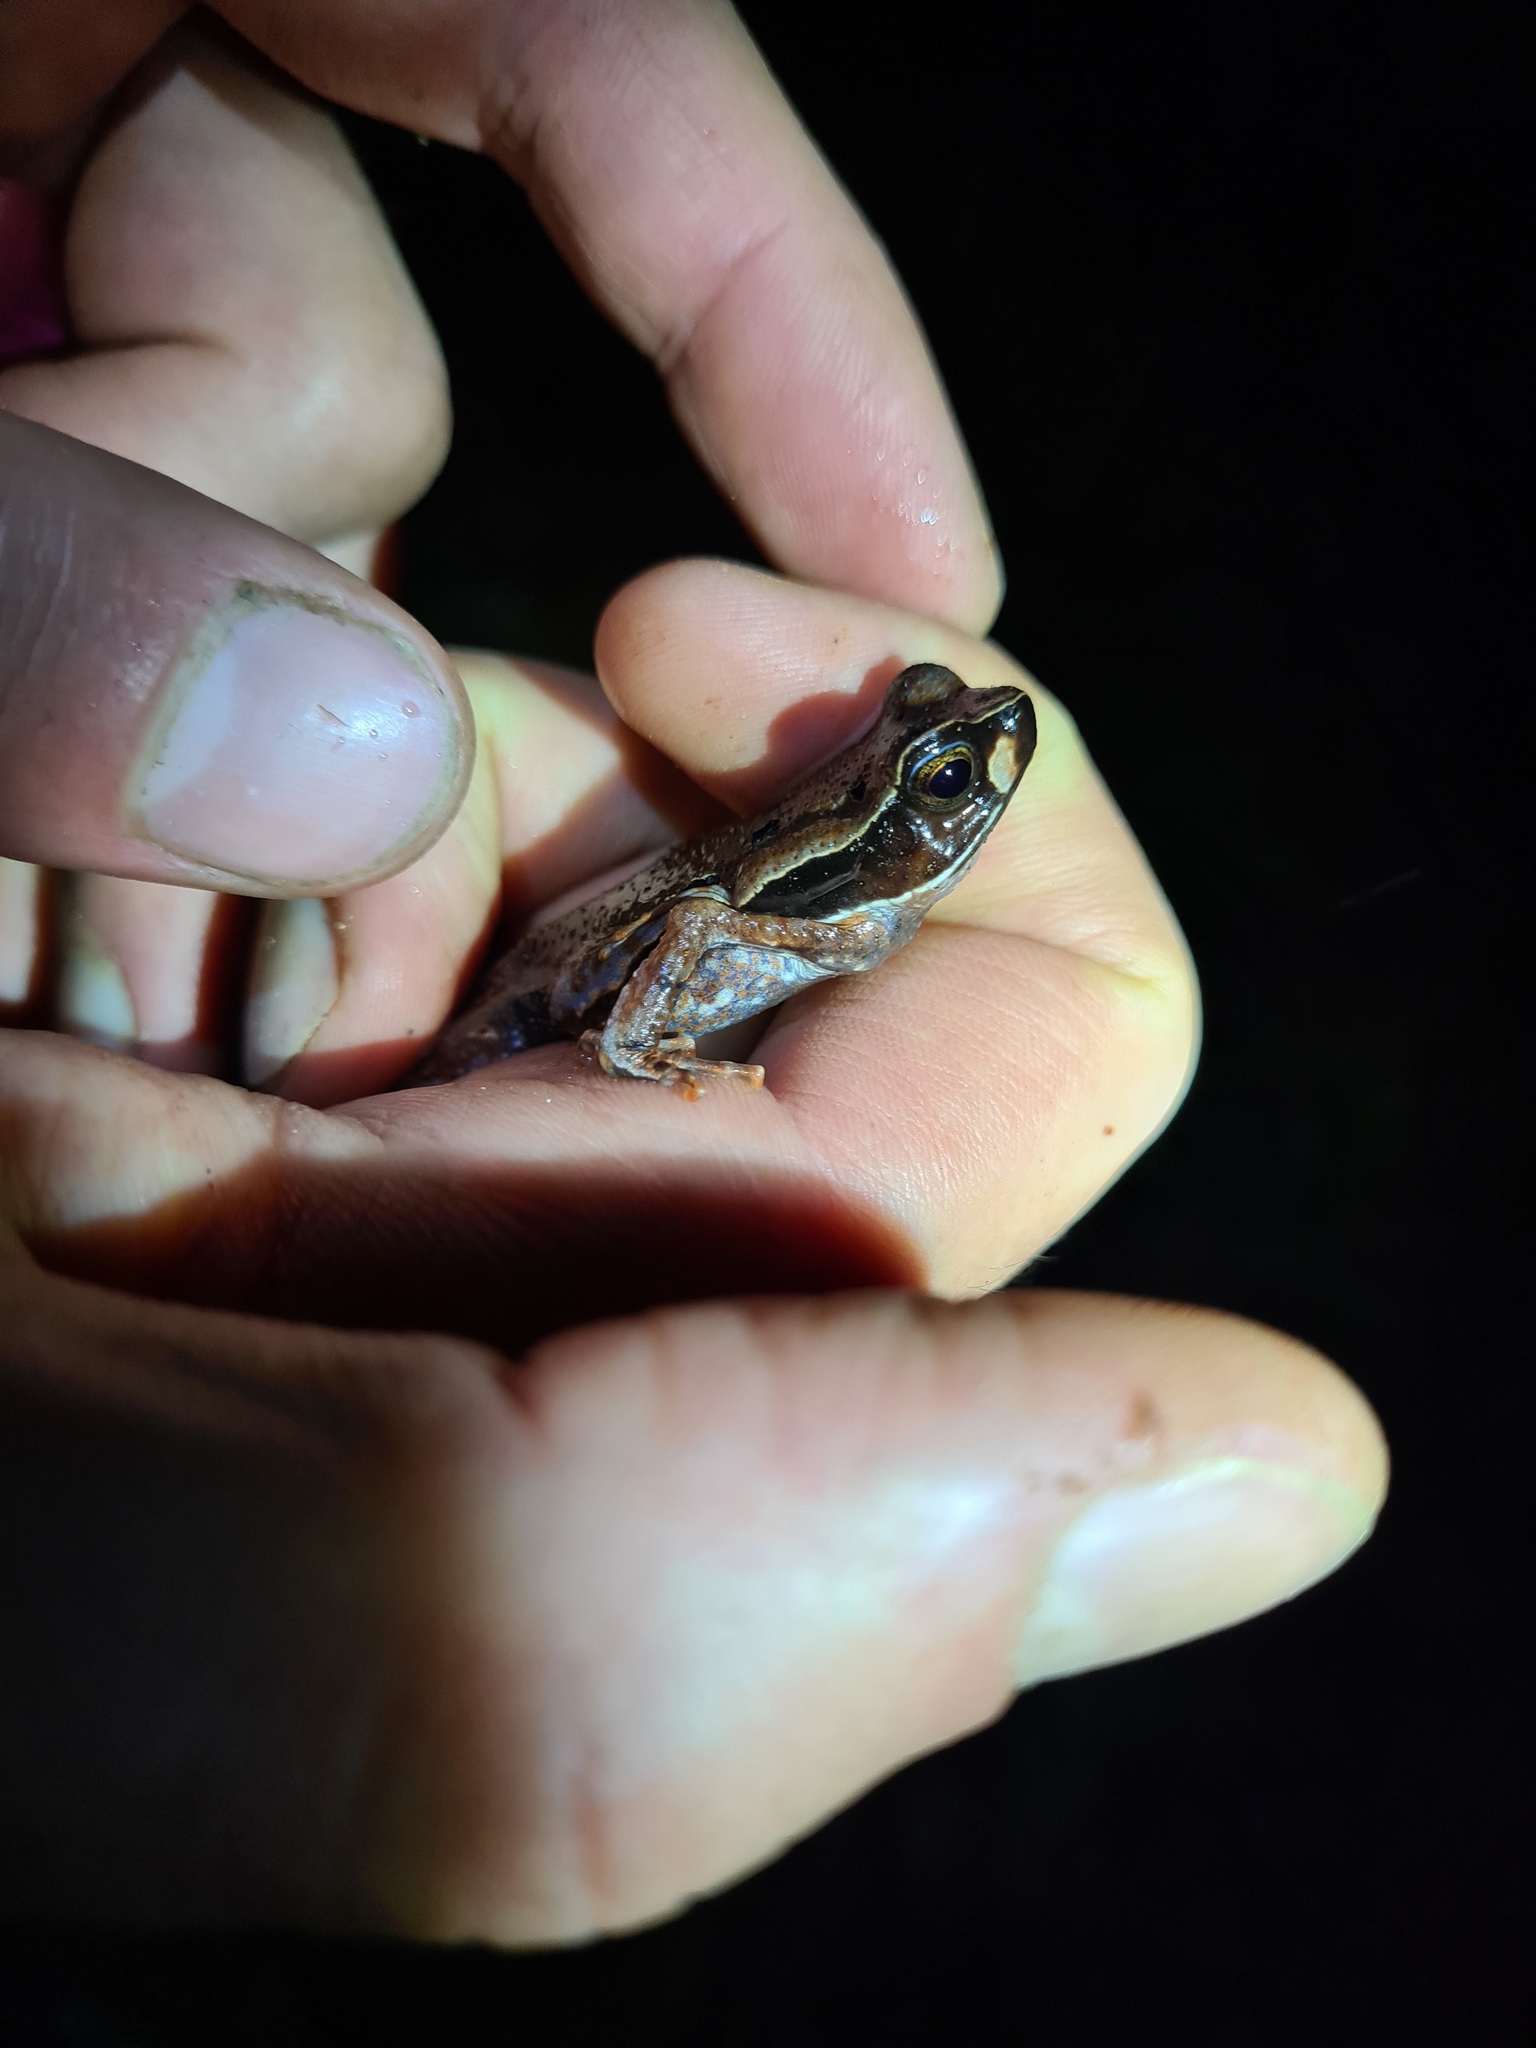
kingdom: Animalia
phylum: Chordata
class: Amphibia
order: Anura
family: Bufonidae
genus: Rhaebo
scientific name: Rhaebo haematiticus
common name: Truando toad
